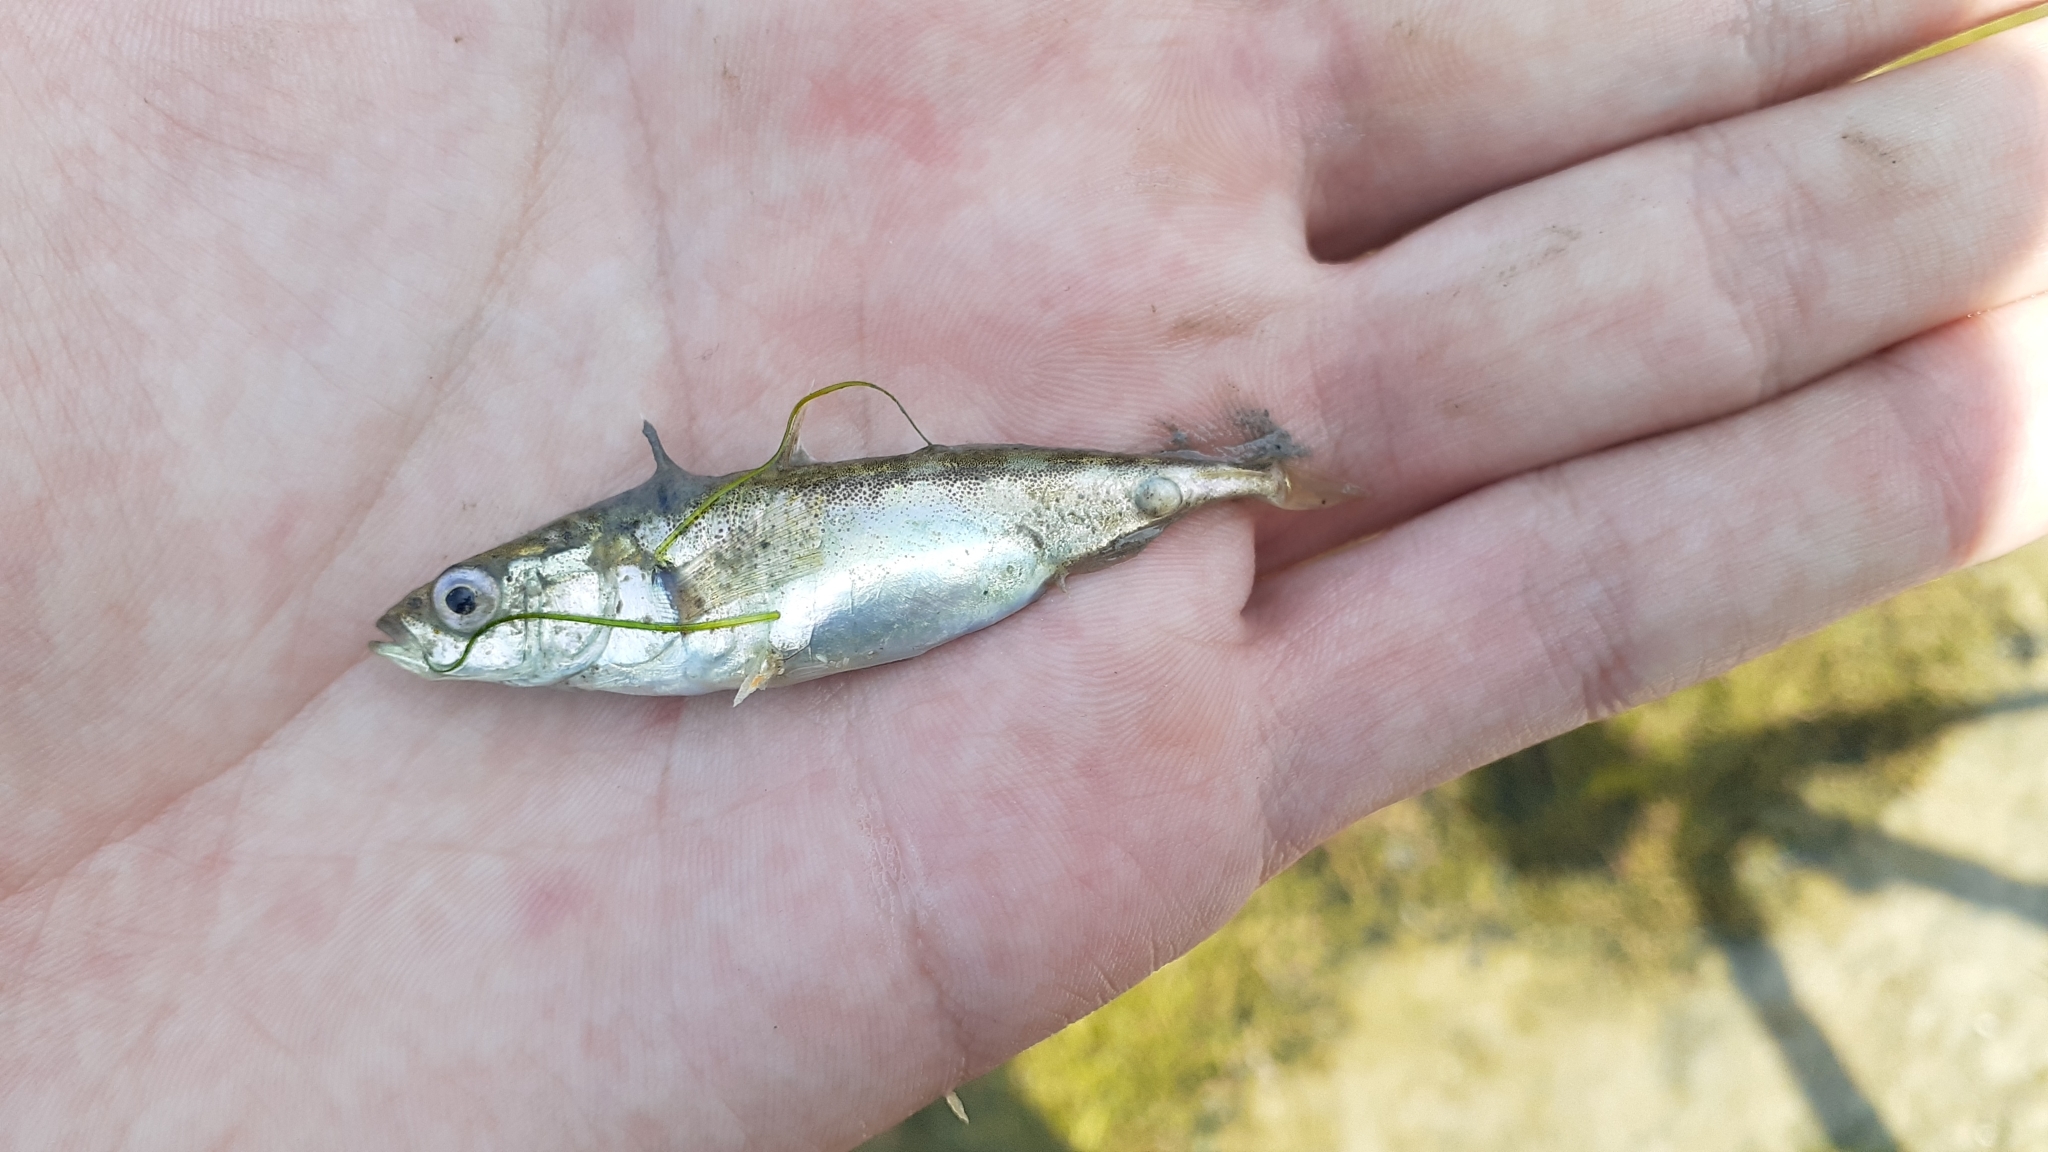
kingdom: Animalia
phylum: Chordata
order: Gasterosteiformes
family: Gasterosteidae
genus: Gasterosteus
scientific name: Gasterosteus aculeatus
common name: Three-spined stickleback
